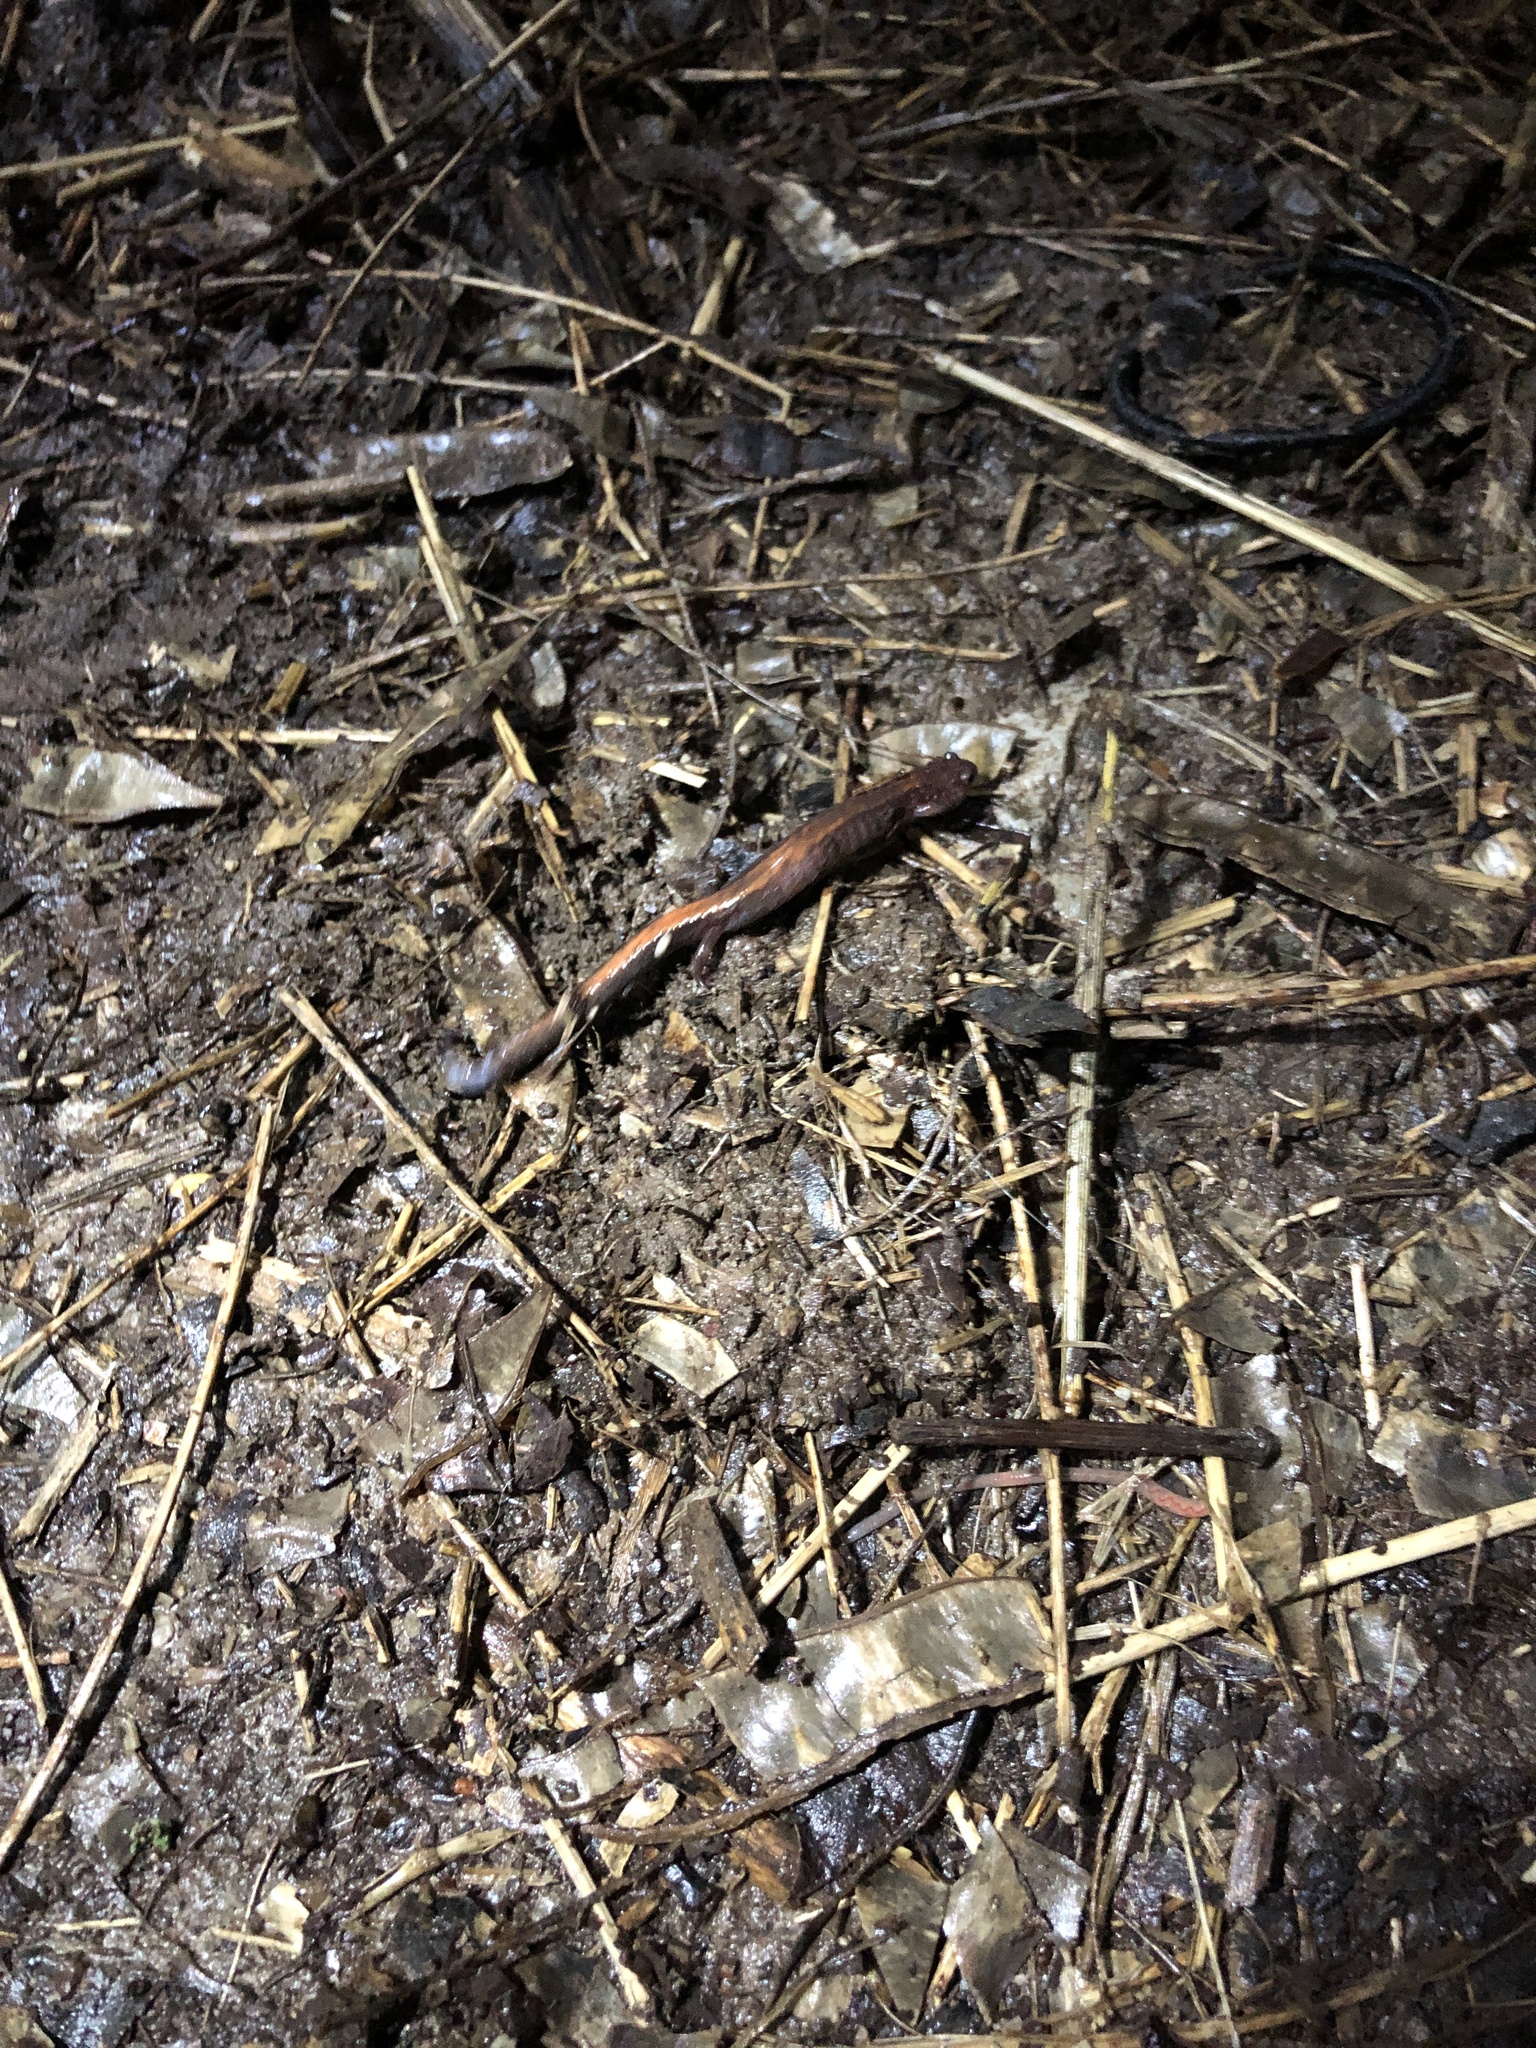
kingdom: Animalia
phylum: Chordata
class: Amphibia
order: Caudata
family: Plethodontidae
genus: Plethodon
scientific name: Plethodon cinereus
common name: Redback salamander
